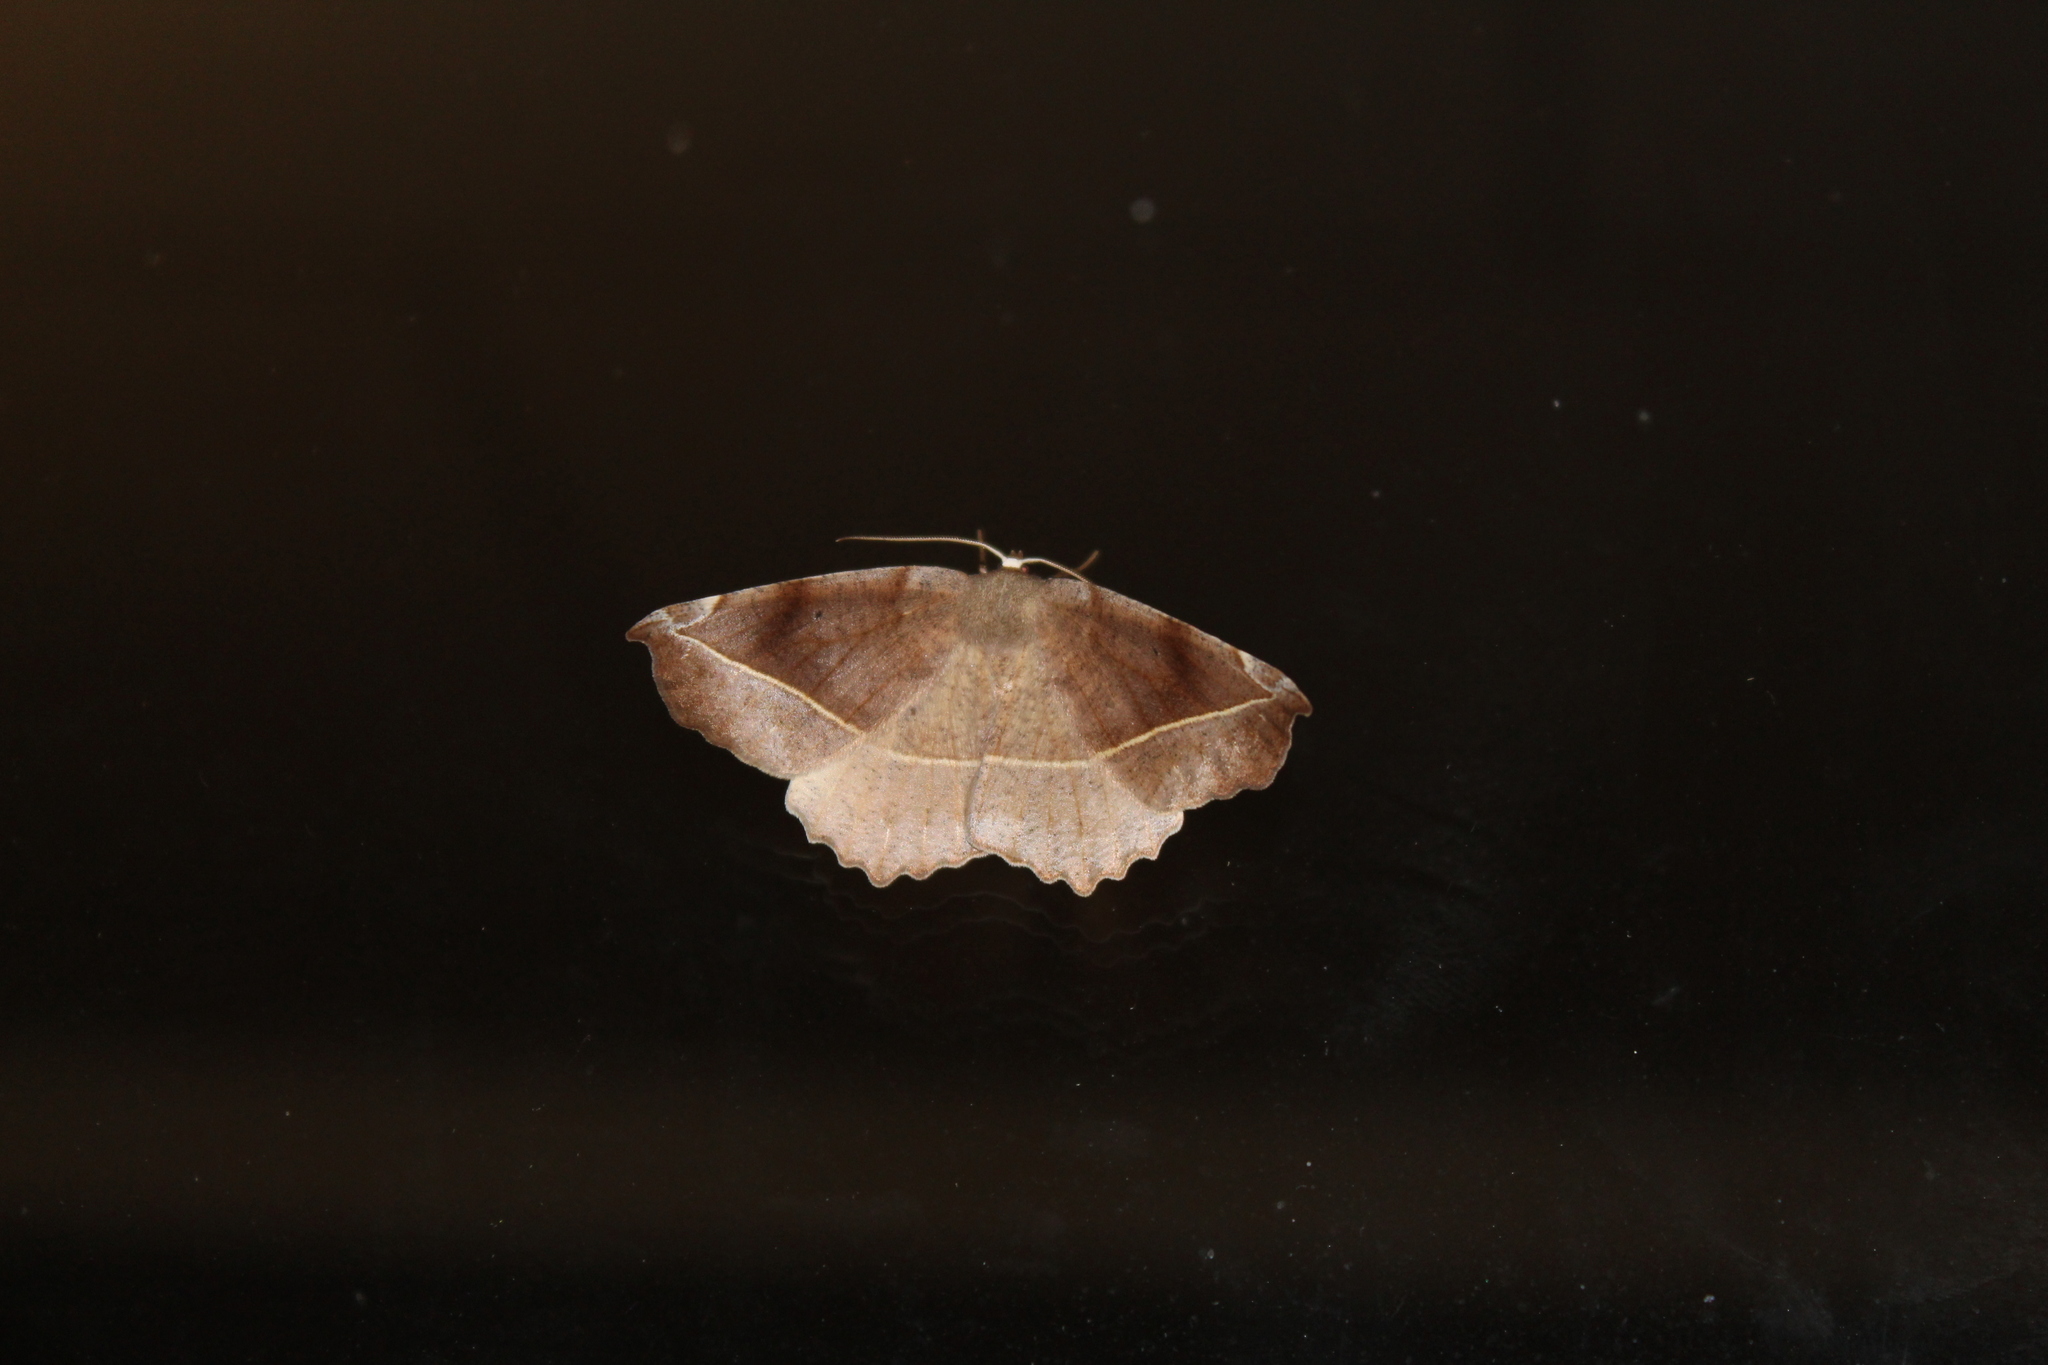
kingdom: Animalia
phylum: Arthropoda
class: Insecta
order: Lepidoptera
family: Geometridae
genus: Eutrapela
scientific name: Eutrapela clemataria
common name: Curved-toothed geometer
